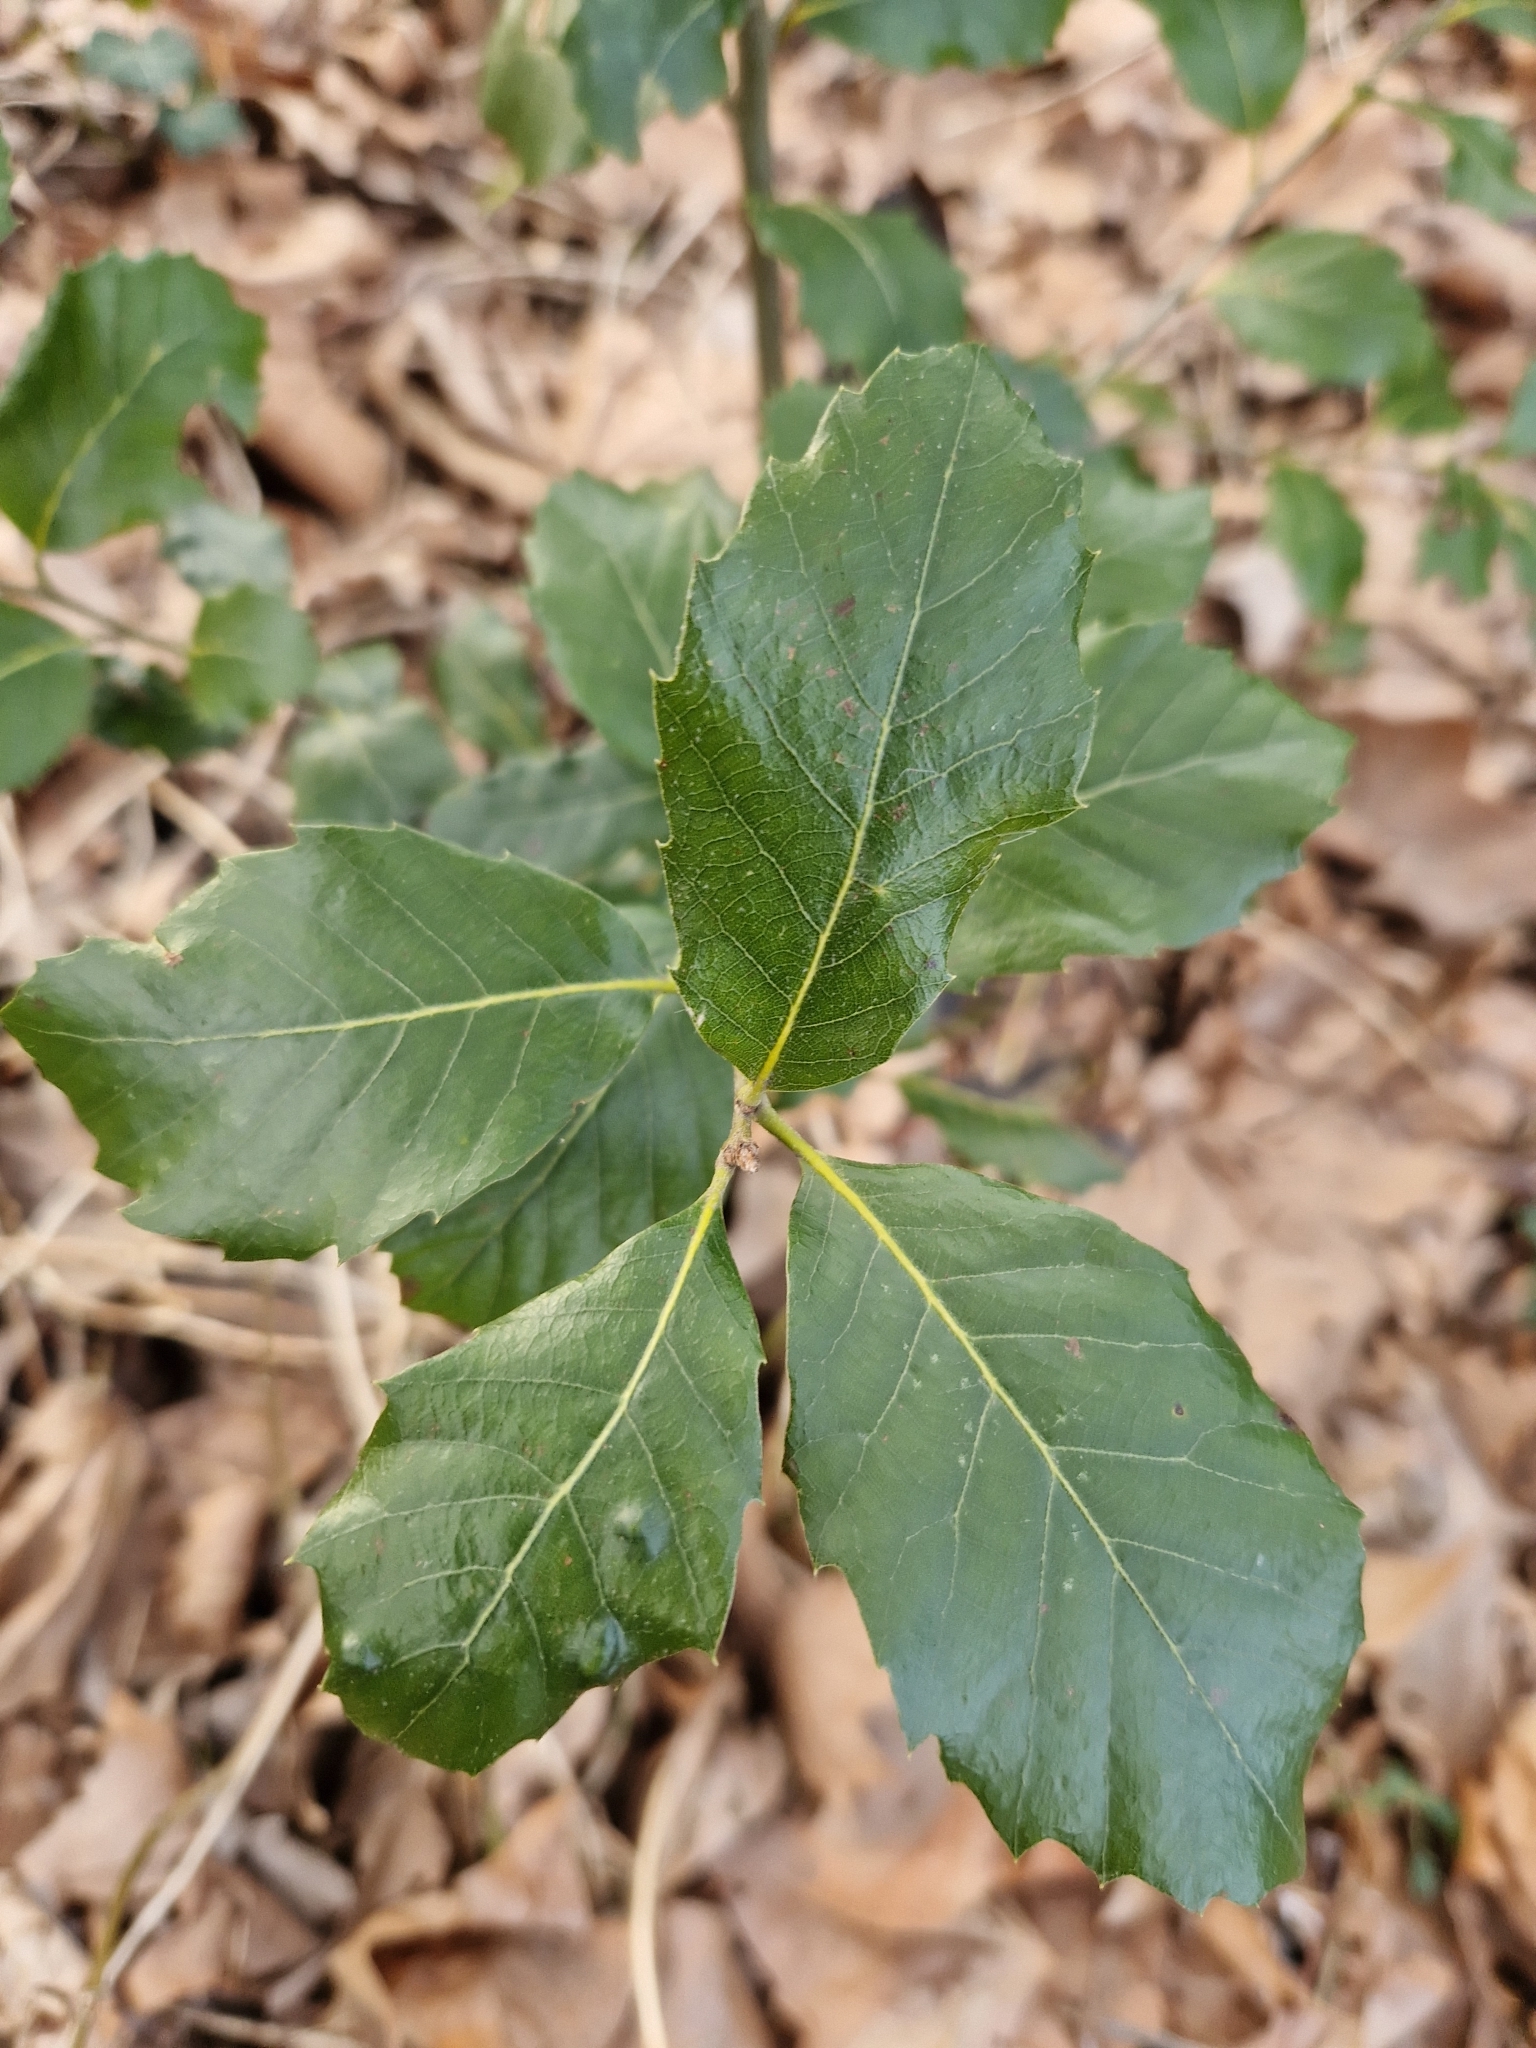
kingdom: Plantae
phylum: Tracheophyta
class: Magnoliopsida
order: Fagales
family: Fagaceae
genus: Quercus
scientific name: Quercus ilex
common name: Evergreen oak
